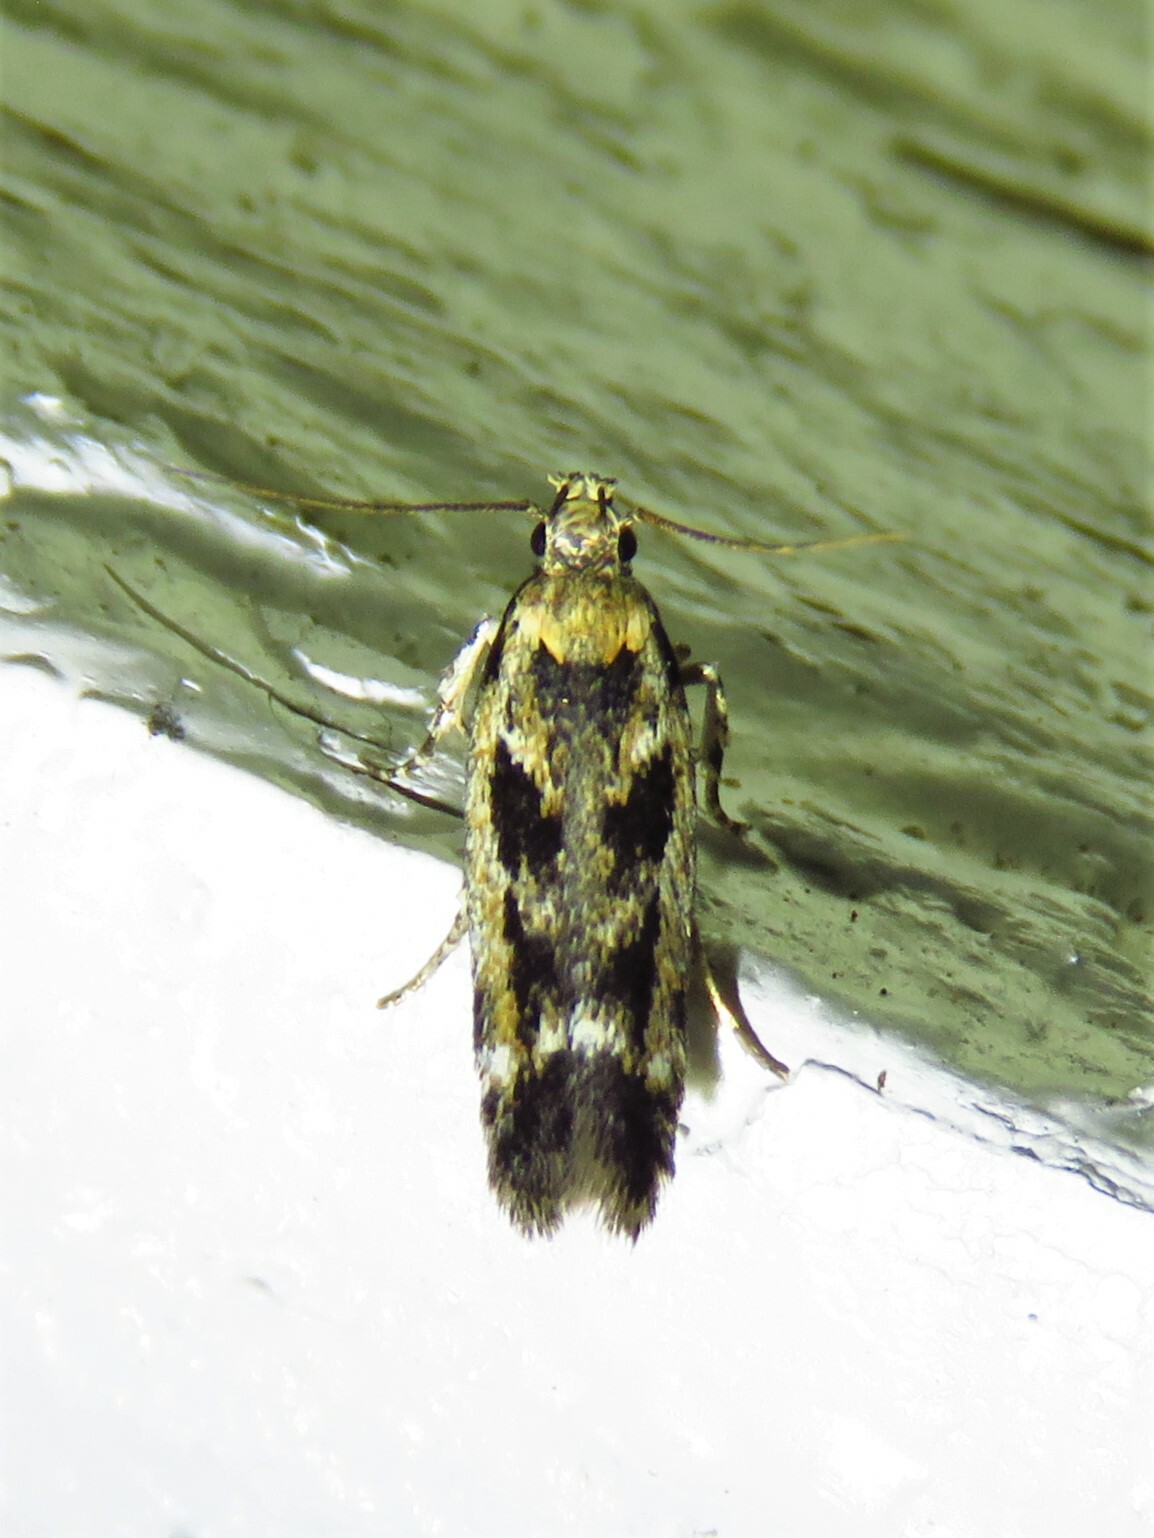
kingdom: Animalia
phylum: Arthropoda
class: Insecta
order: Lepidoptera
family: Gelechiidae
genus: Caryocolum
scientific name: Caryocolum fischerella
